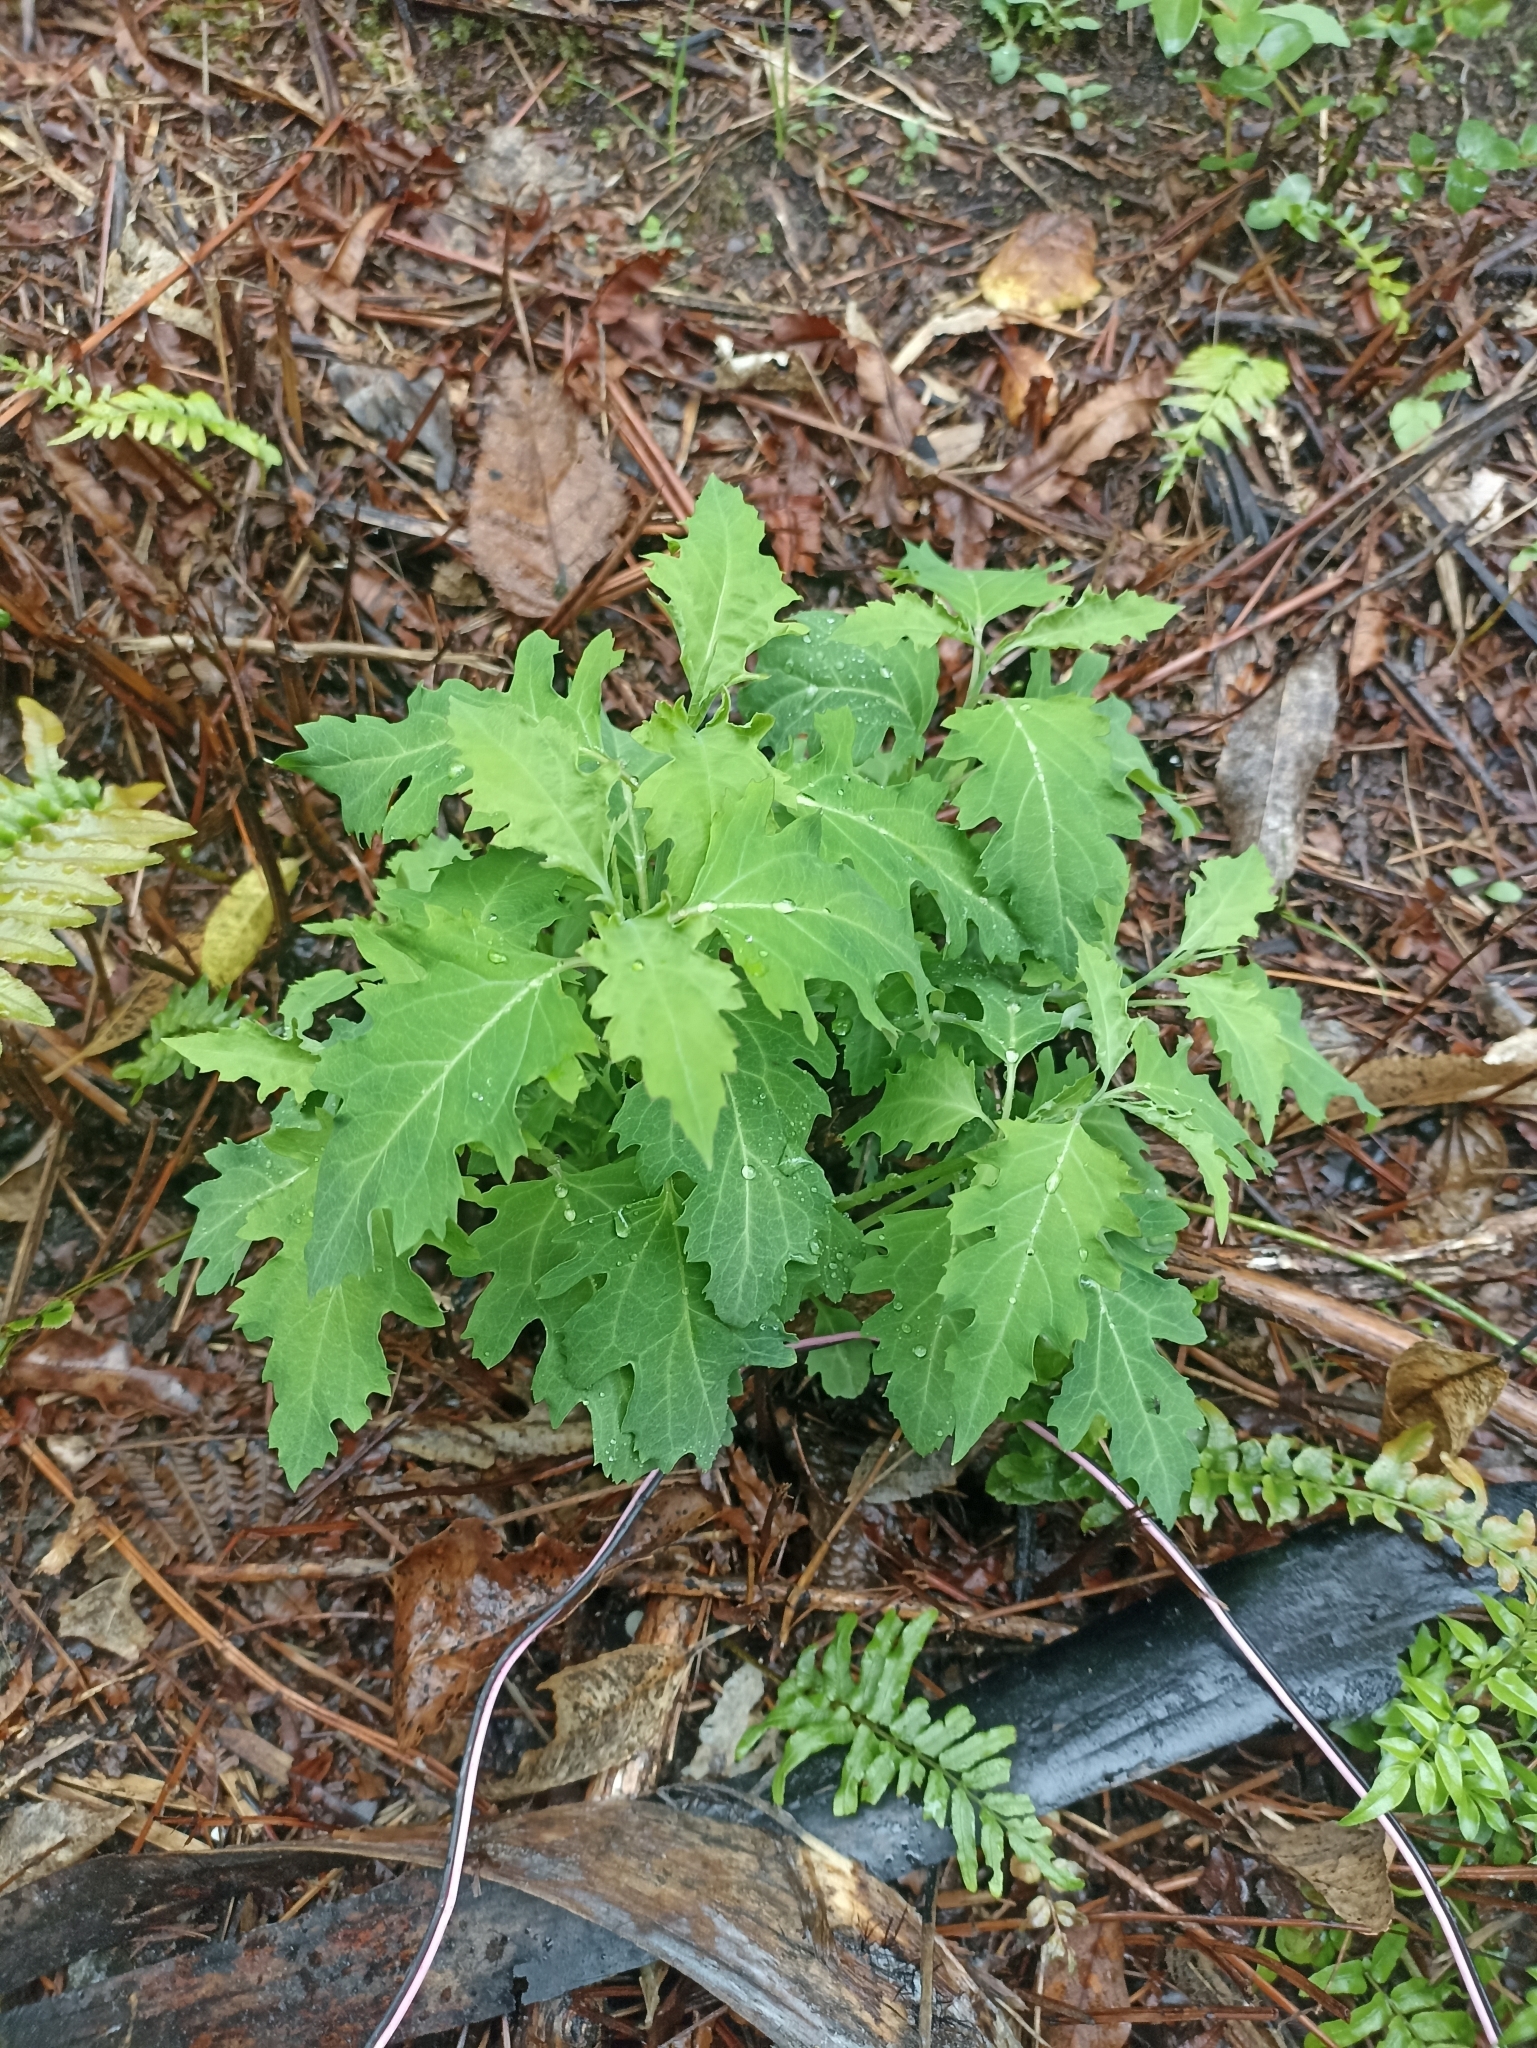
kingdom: Plantae
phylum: Tracheophyta
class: Magnoliopsida
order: Dipsacales
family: Caprifoliaceae
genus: Leycesteria
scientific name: Leycesteria formosa
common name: Himalayan honeysuckle
